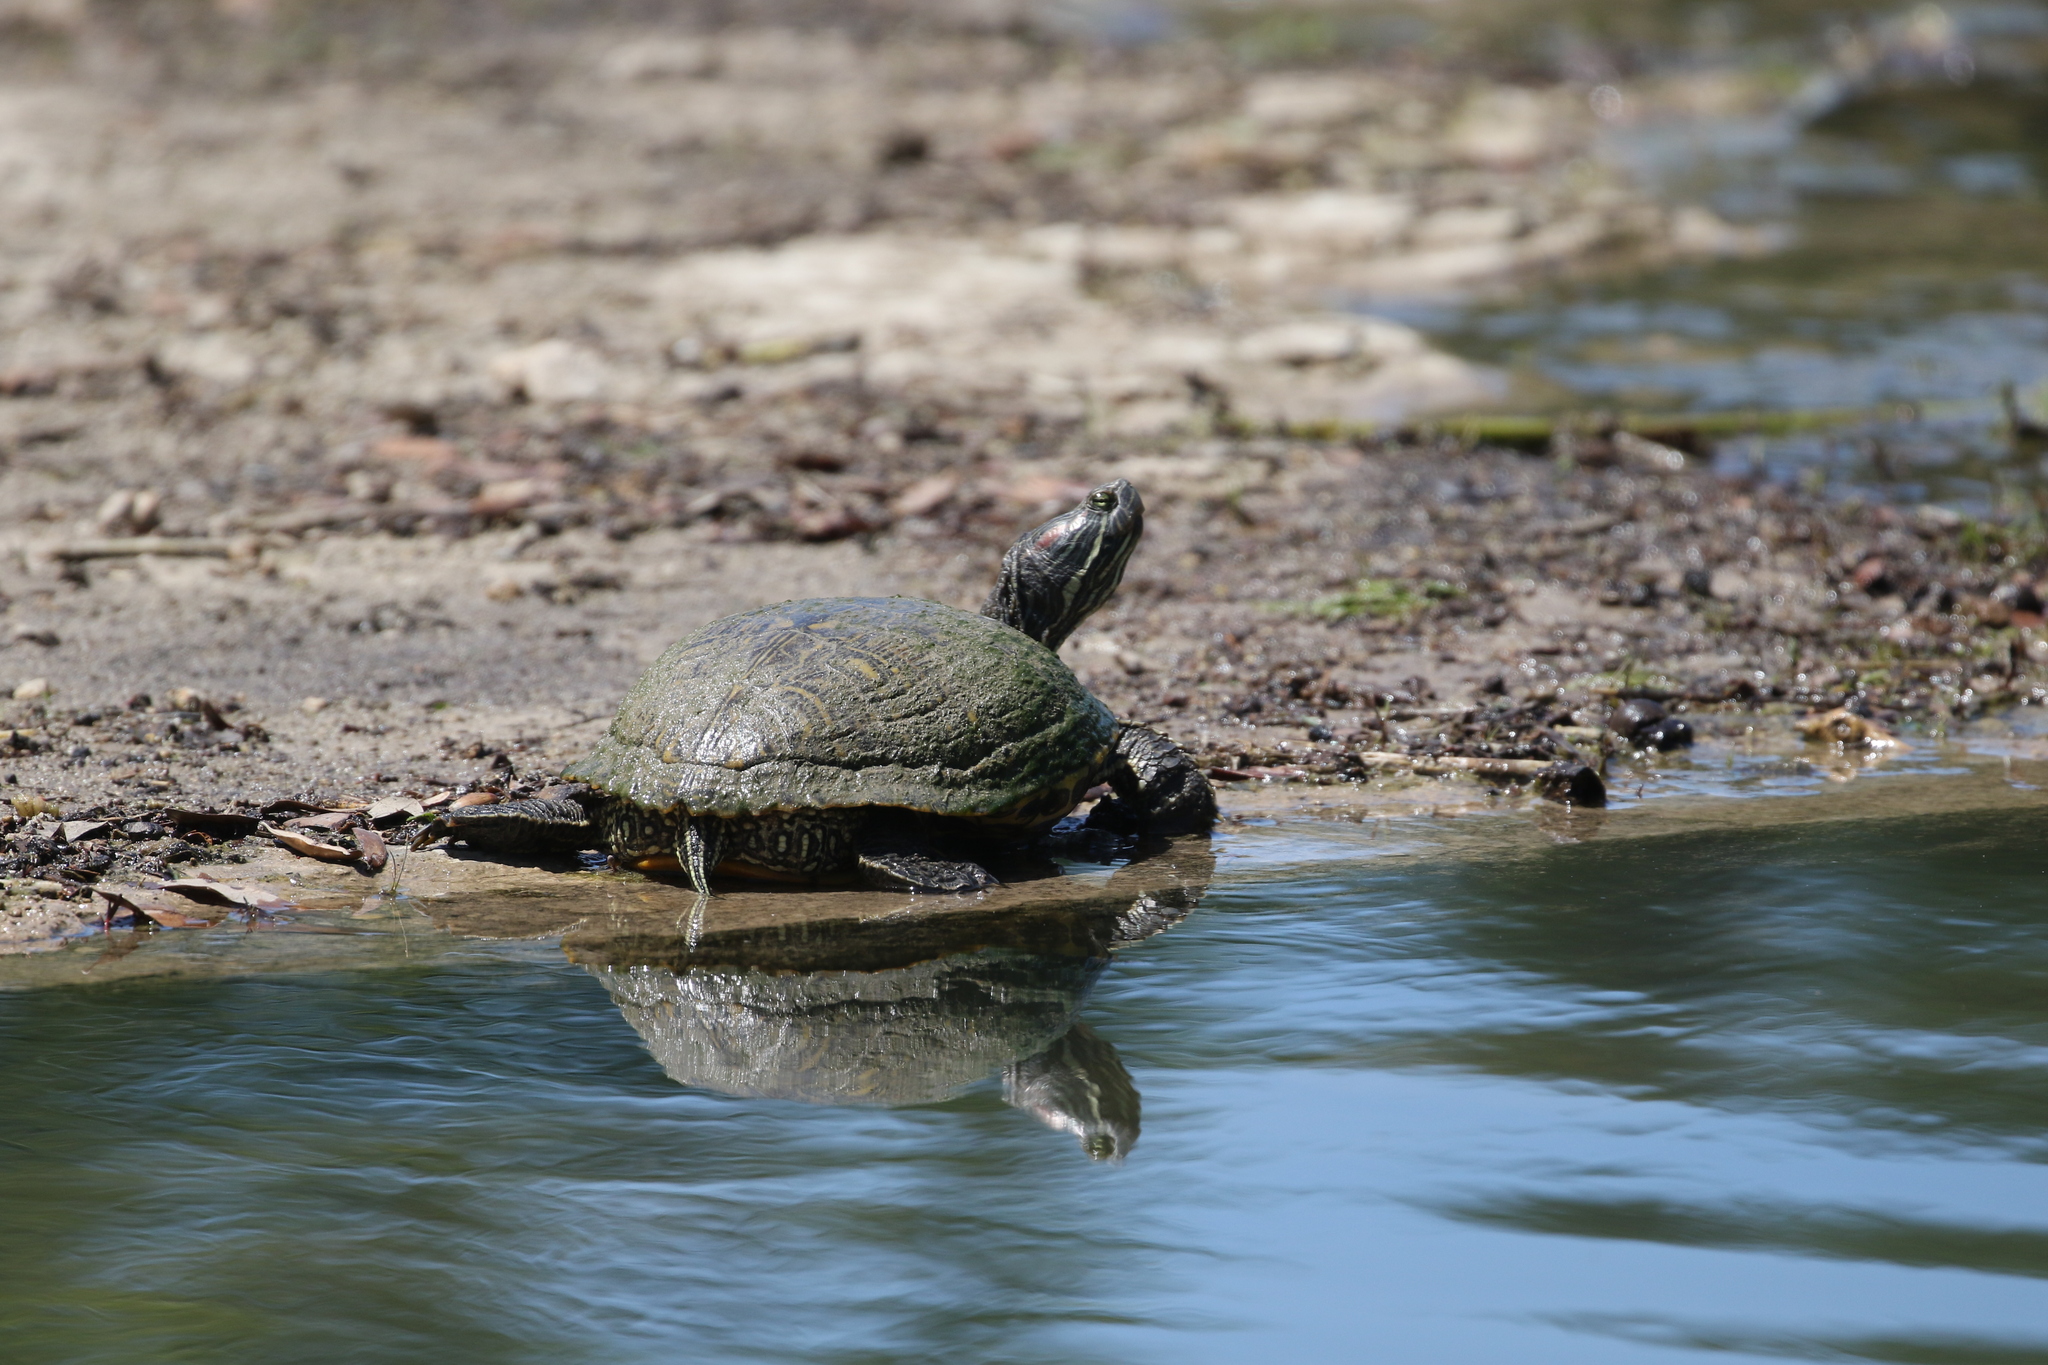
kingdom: Animalia
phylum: Chordata
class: Testudines
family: Emydidae
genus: Trachemys
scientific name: Trachemys scripta
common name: Slider
